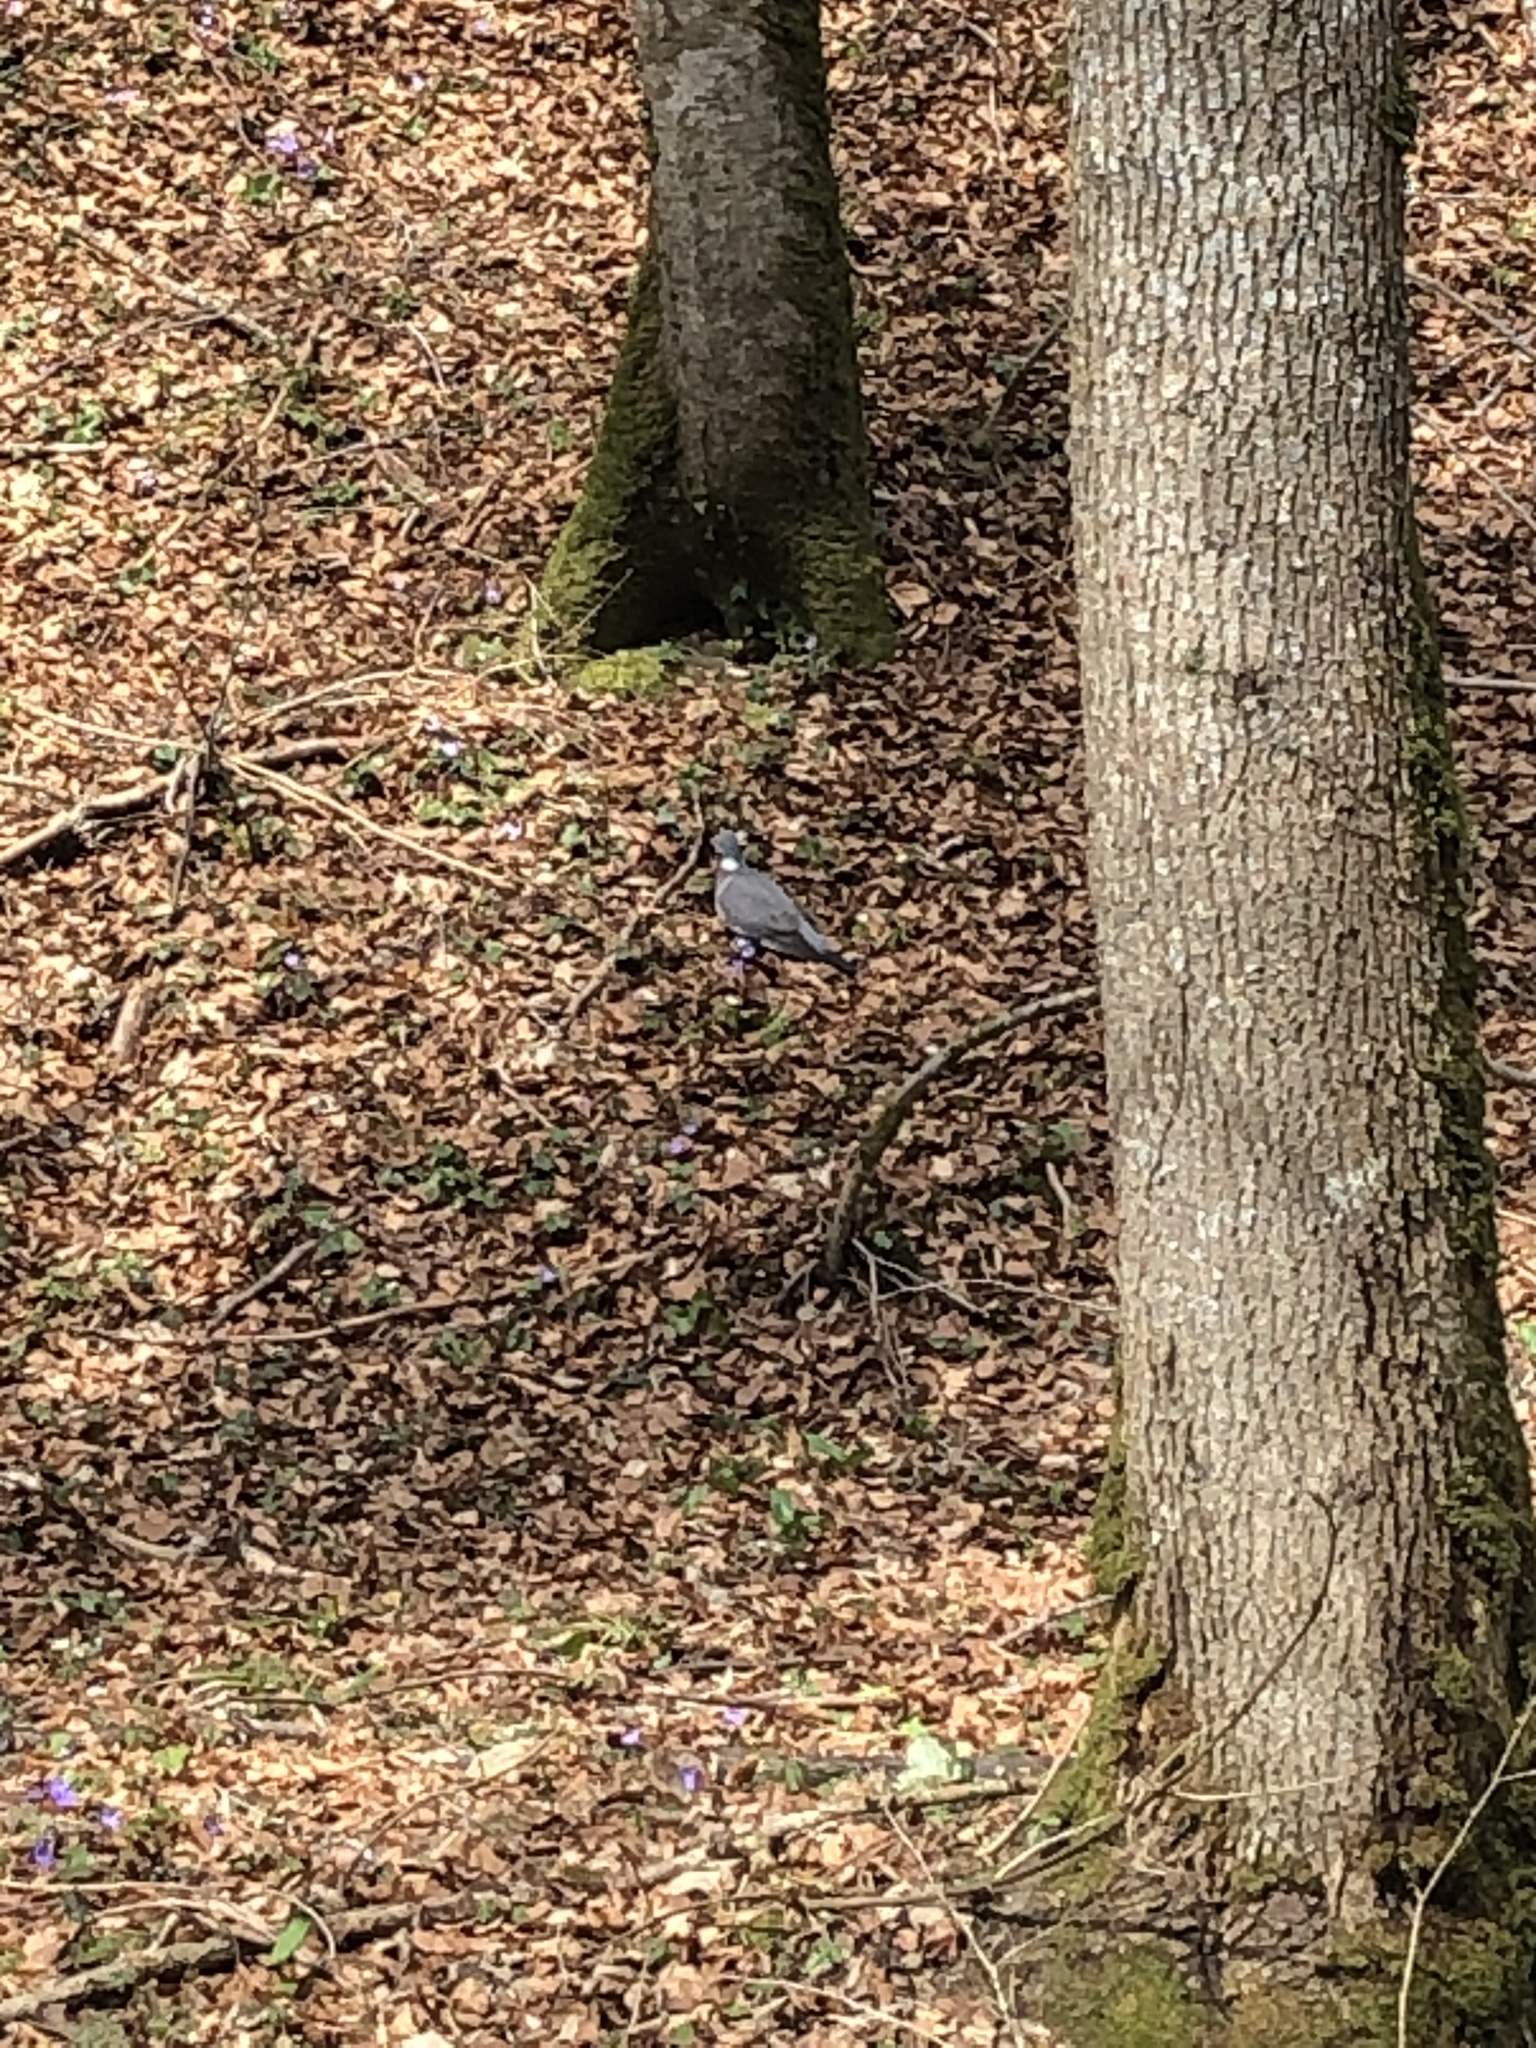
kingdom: Animalia
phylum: Chordata
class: Aves
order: Columbiformes
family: Columbidae
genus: Columba
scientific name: Columba palumbus
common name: Common wood pigeon
